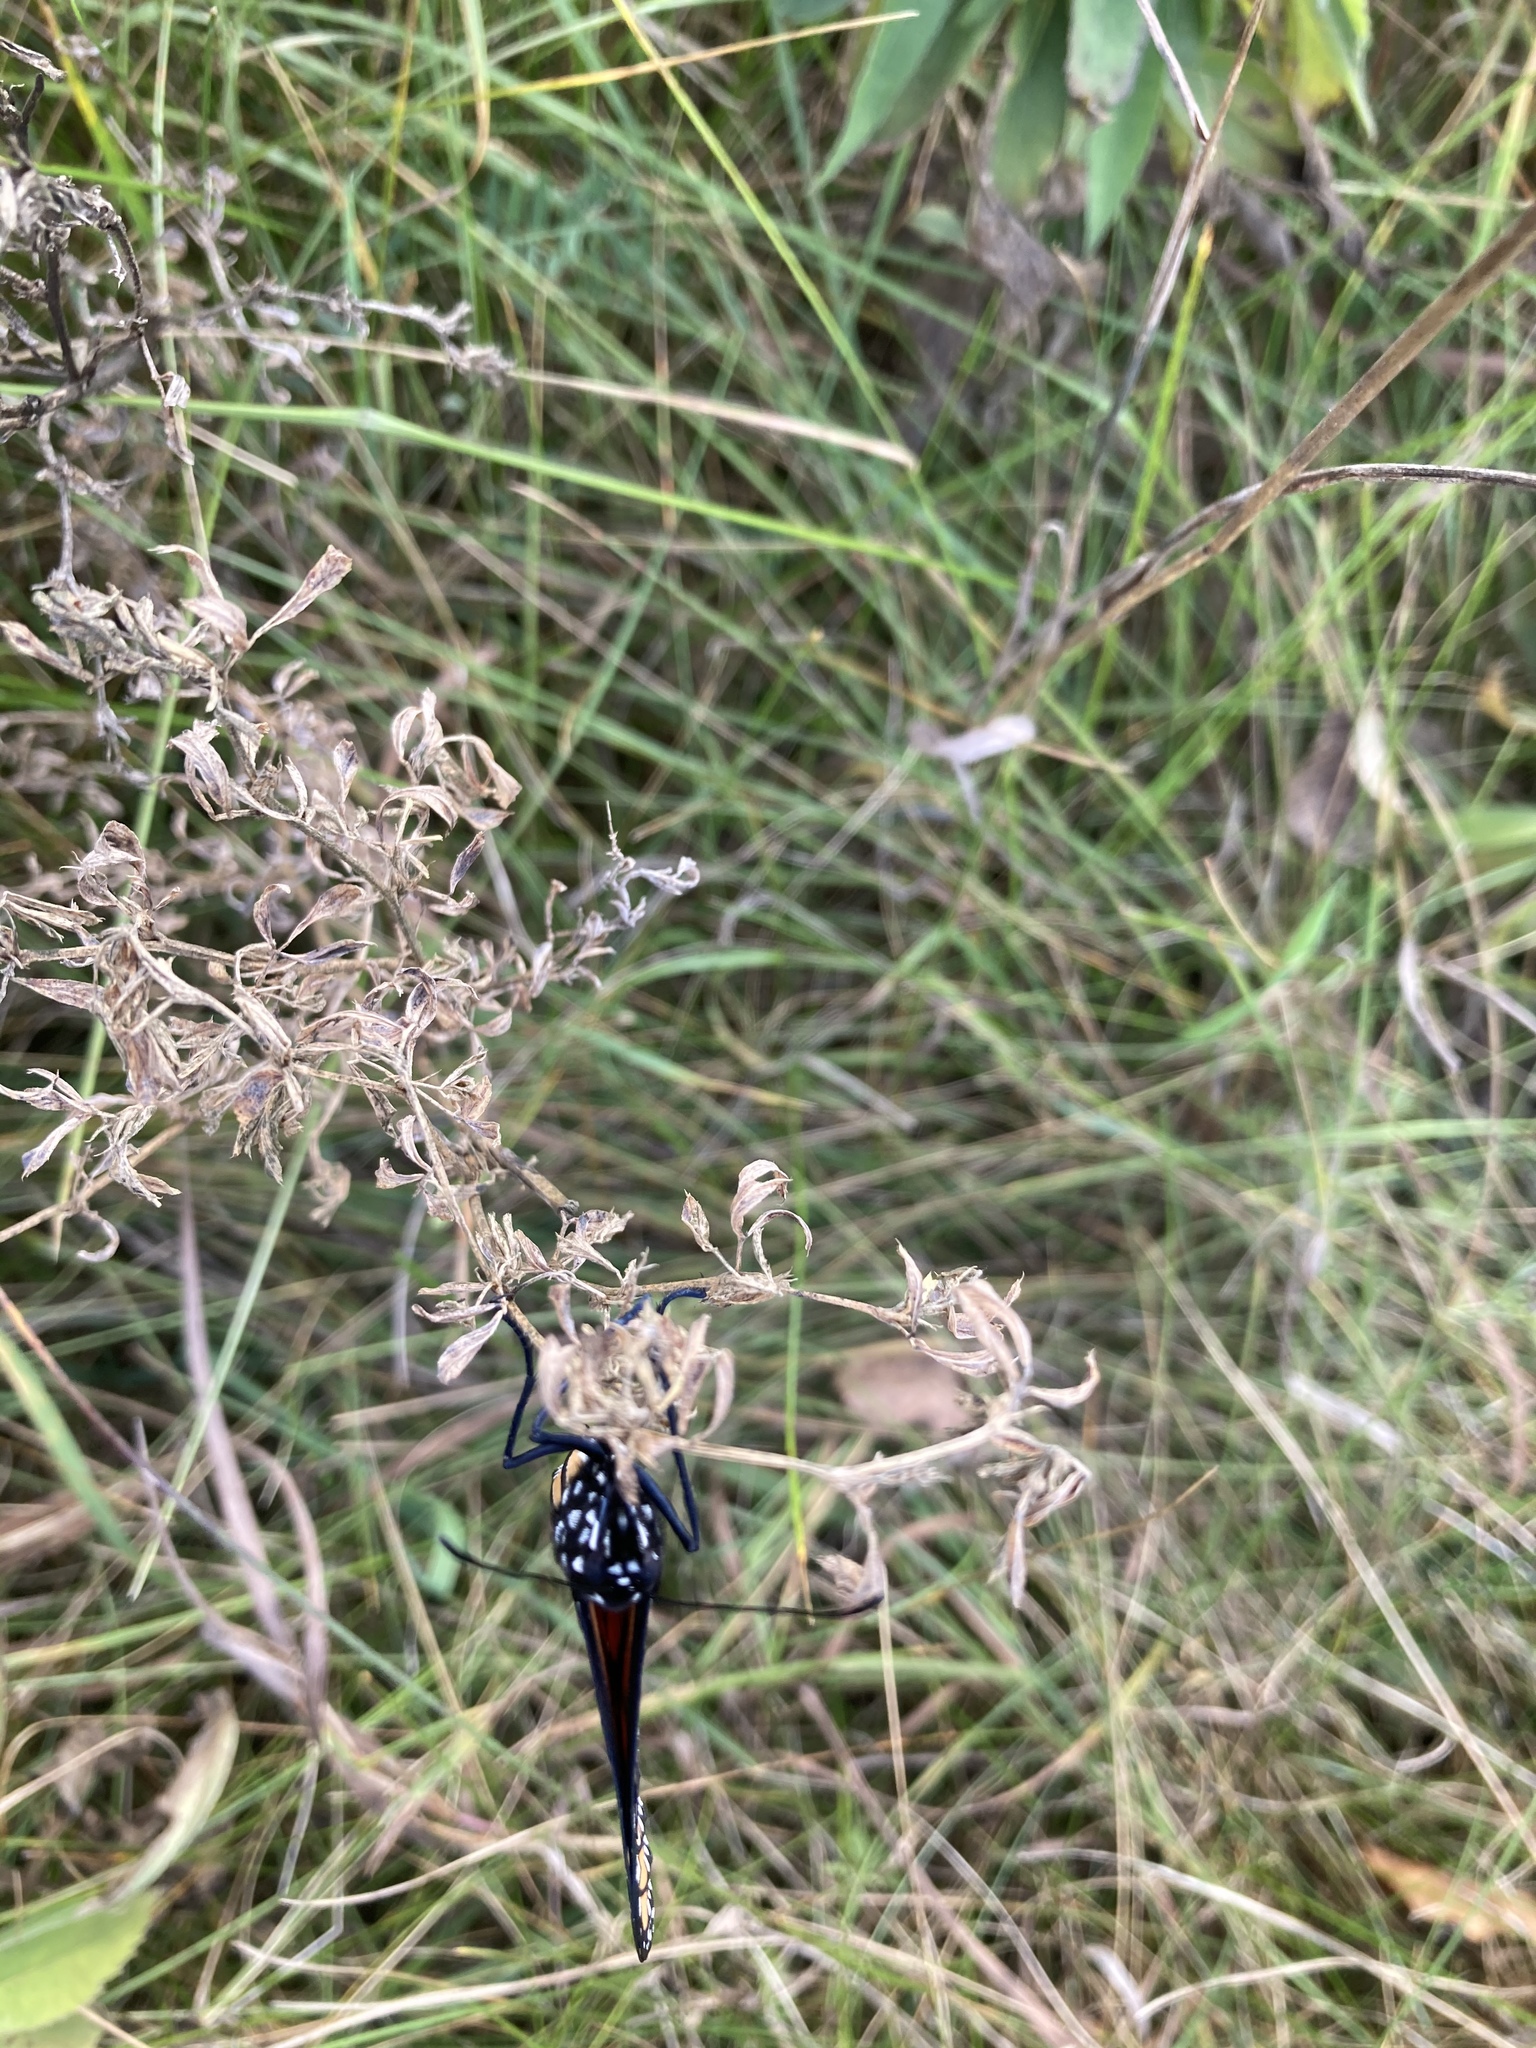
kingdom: Animalia
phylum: Arthropoda
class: Insecta
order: Lepidoptera
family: Nymphalidae
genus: Danaus
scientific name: Danaus plexippus
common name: Monarch
